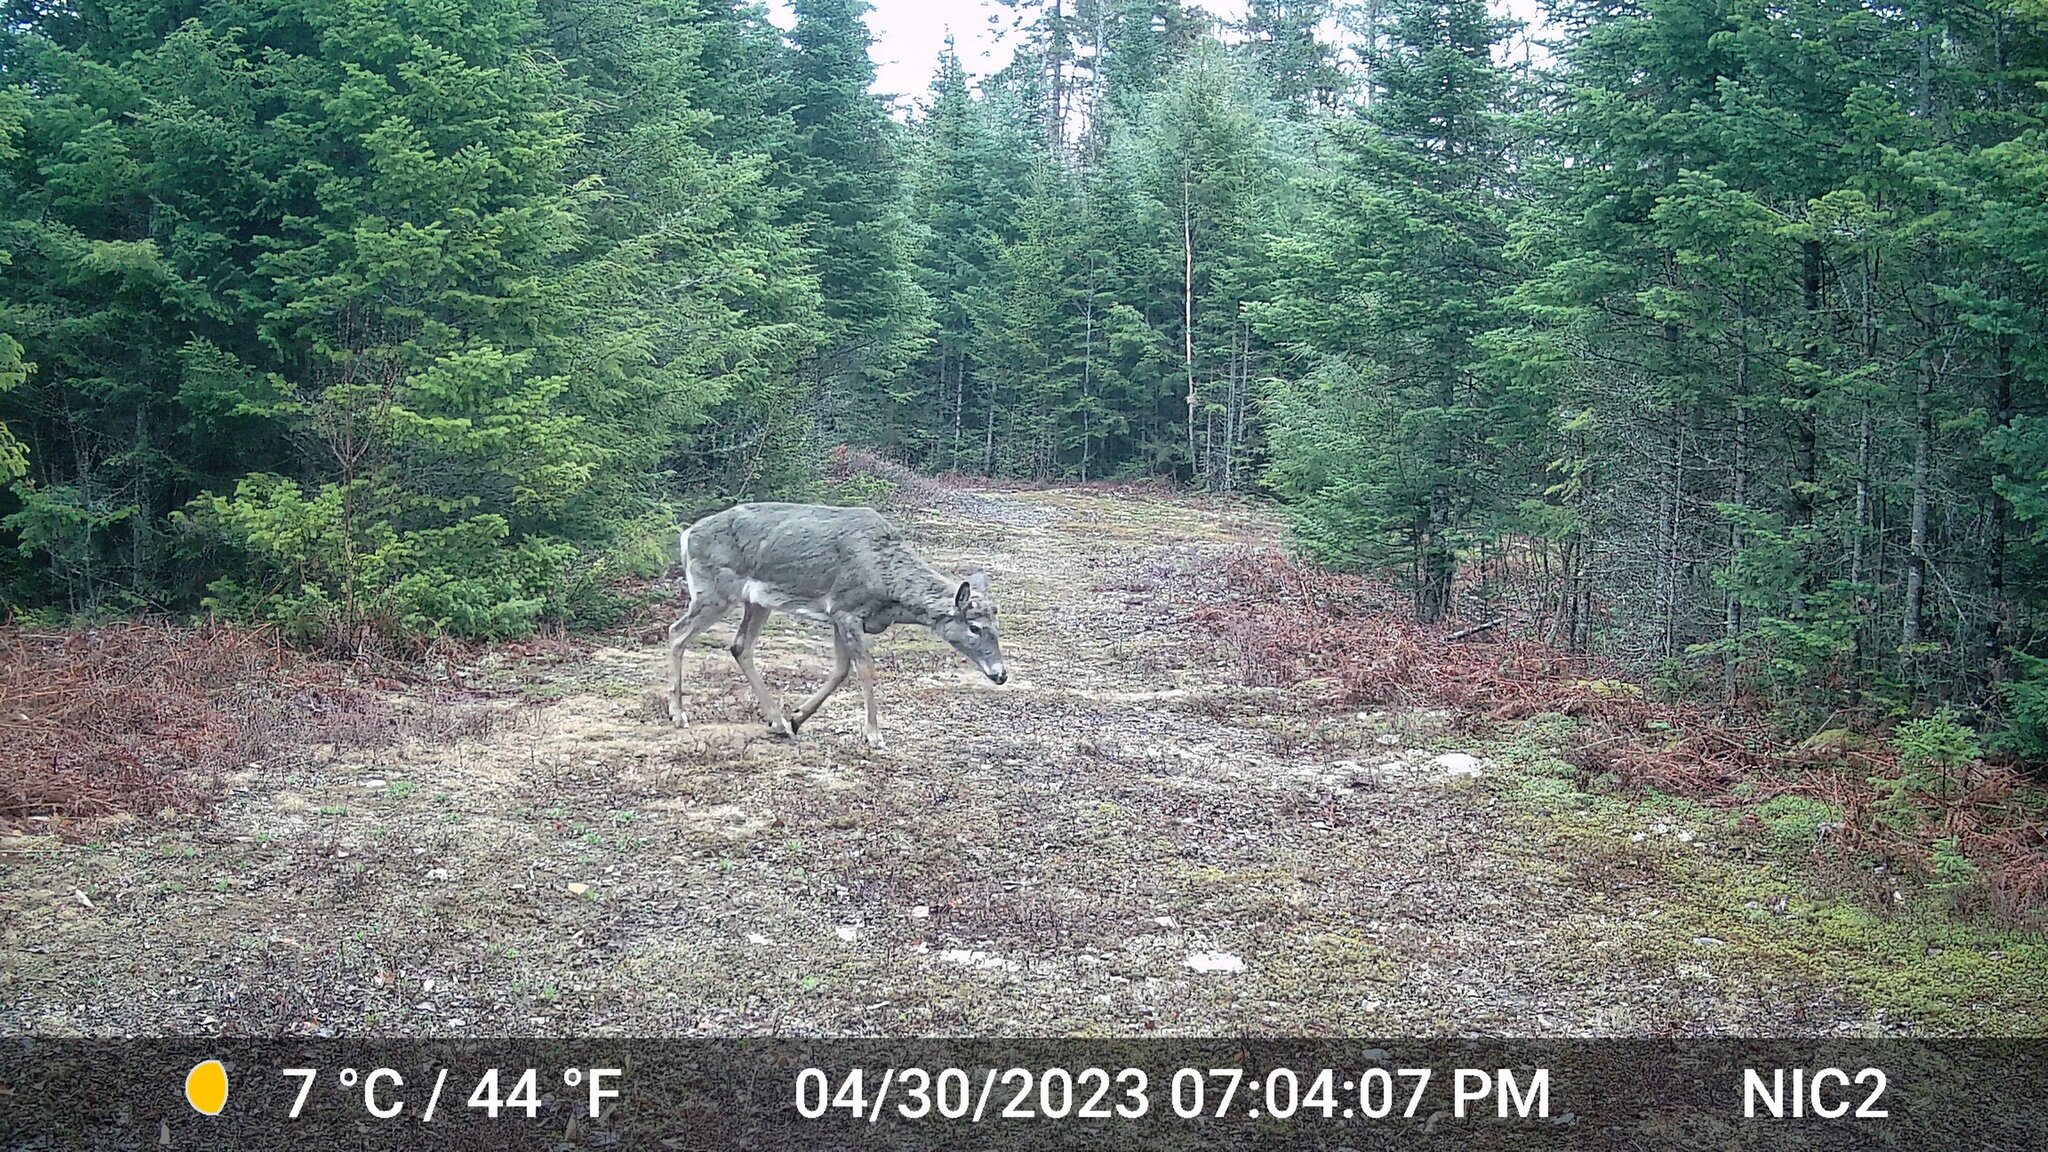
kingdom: Animalia
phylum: Chordata
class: Mammalia
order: Artiodactyla
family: Cervidae
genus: Odocoileus
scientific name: Odocoileus virginianus
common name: White-tailed deer
